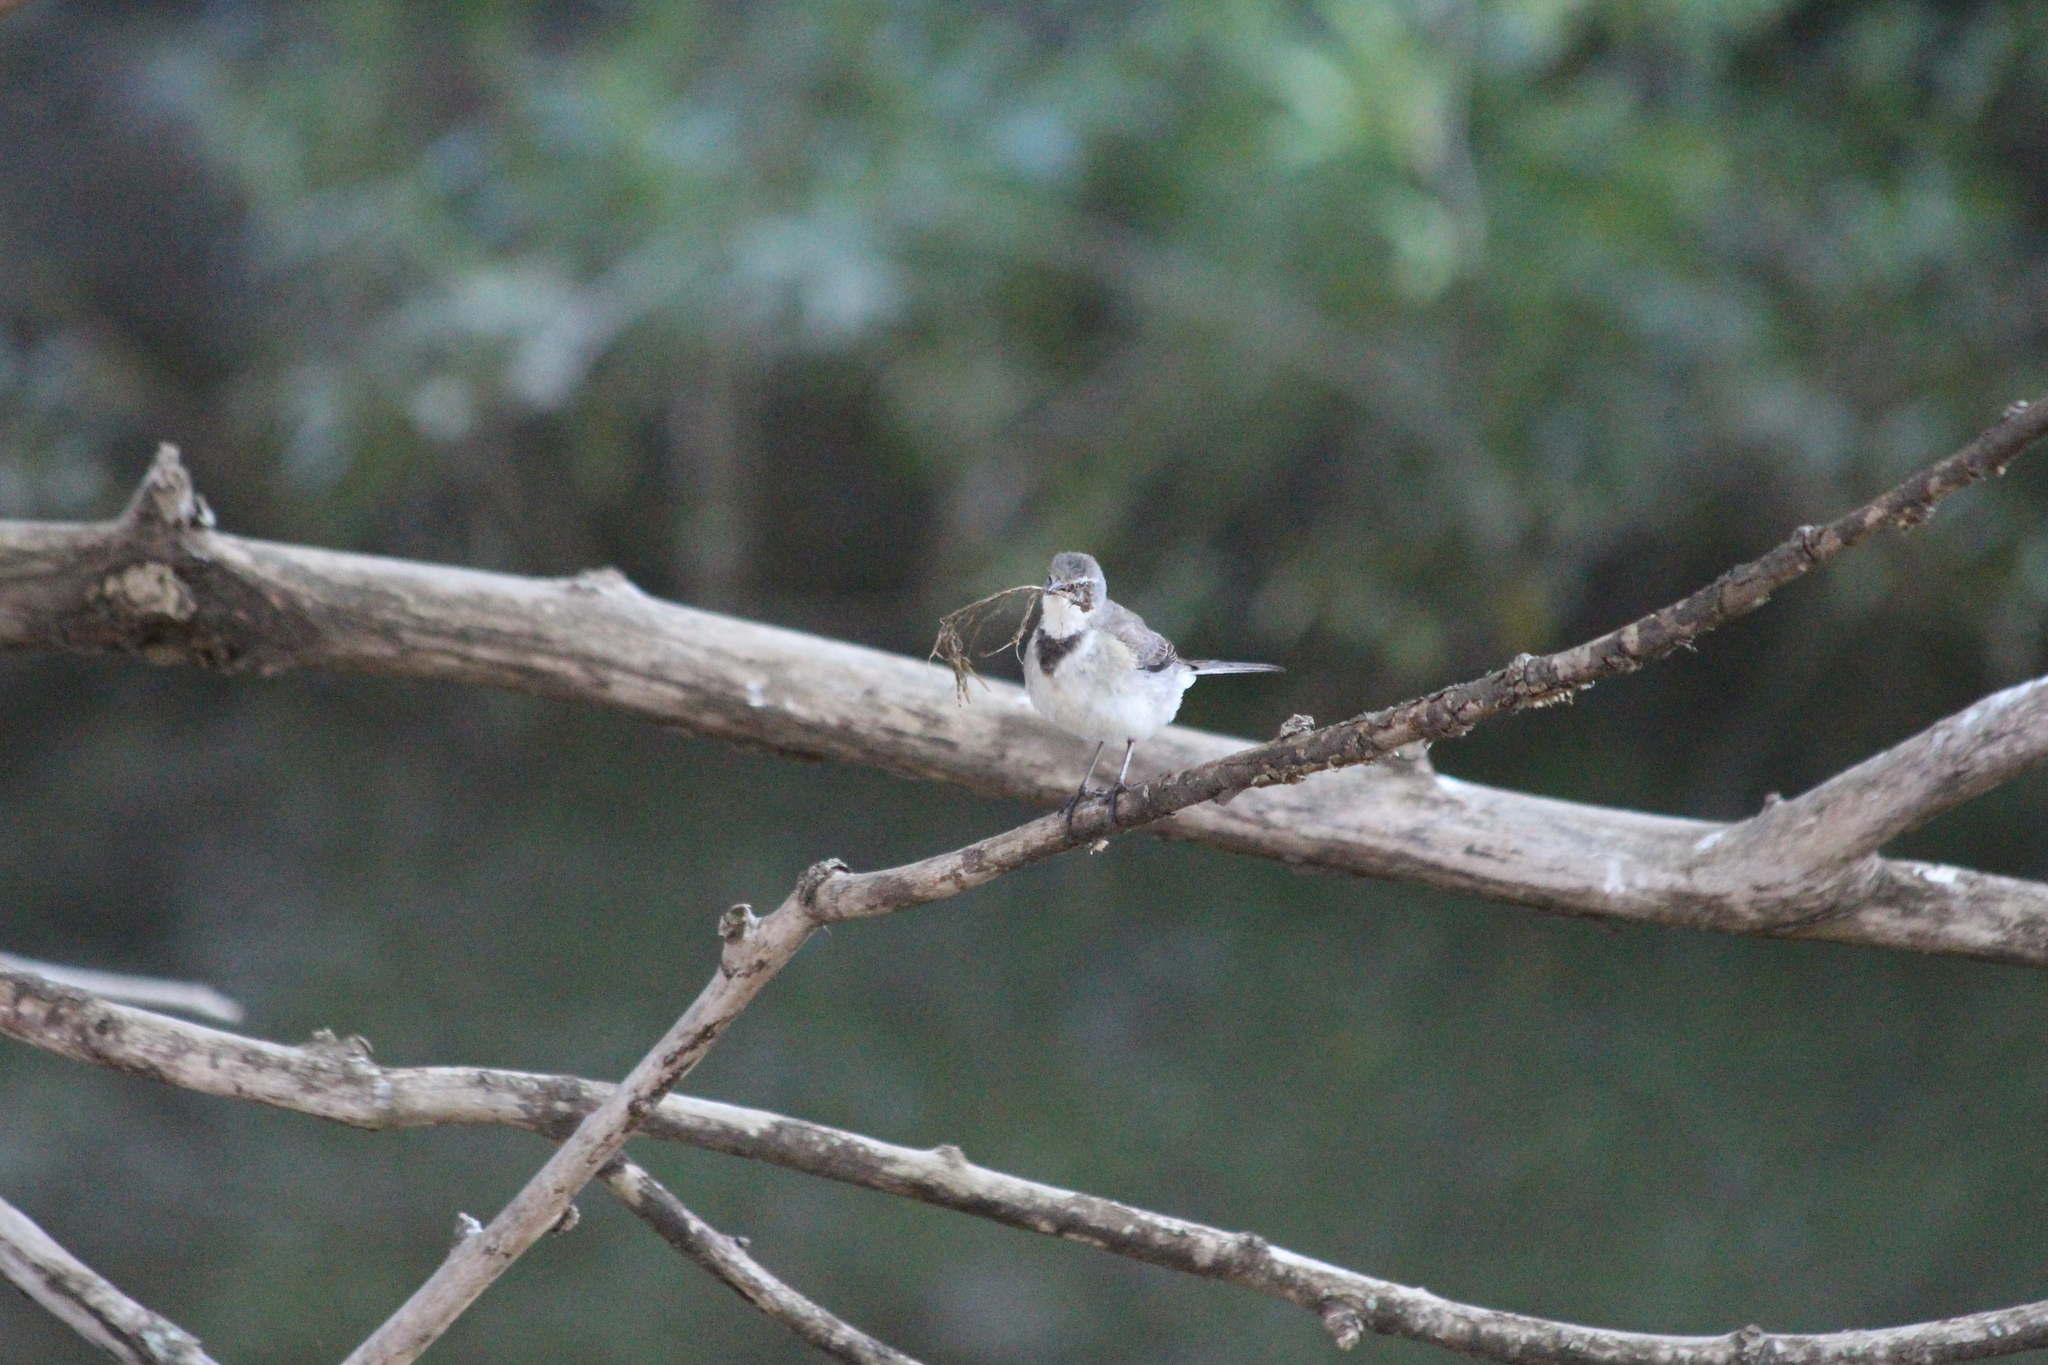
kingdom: Animalia
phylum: Chordata
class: Aves
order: Passeriformes
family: Motacillidae
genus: Motacilla
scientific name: Motacilla capensis
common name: Cape wagtail
